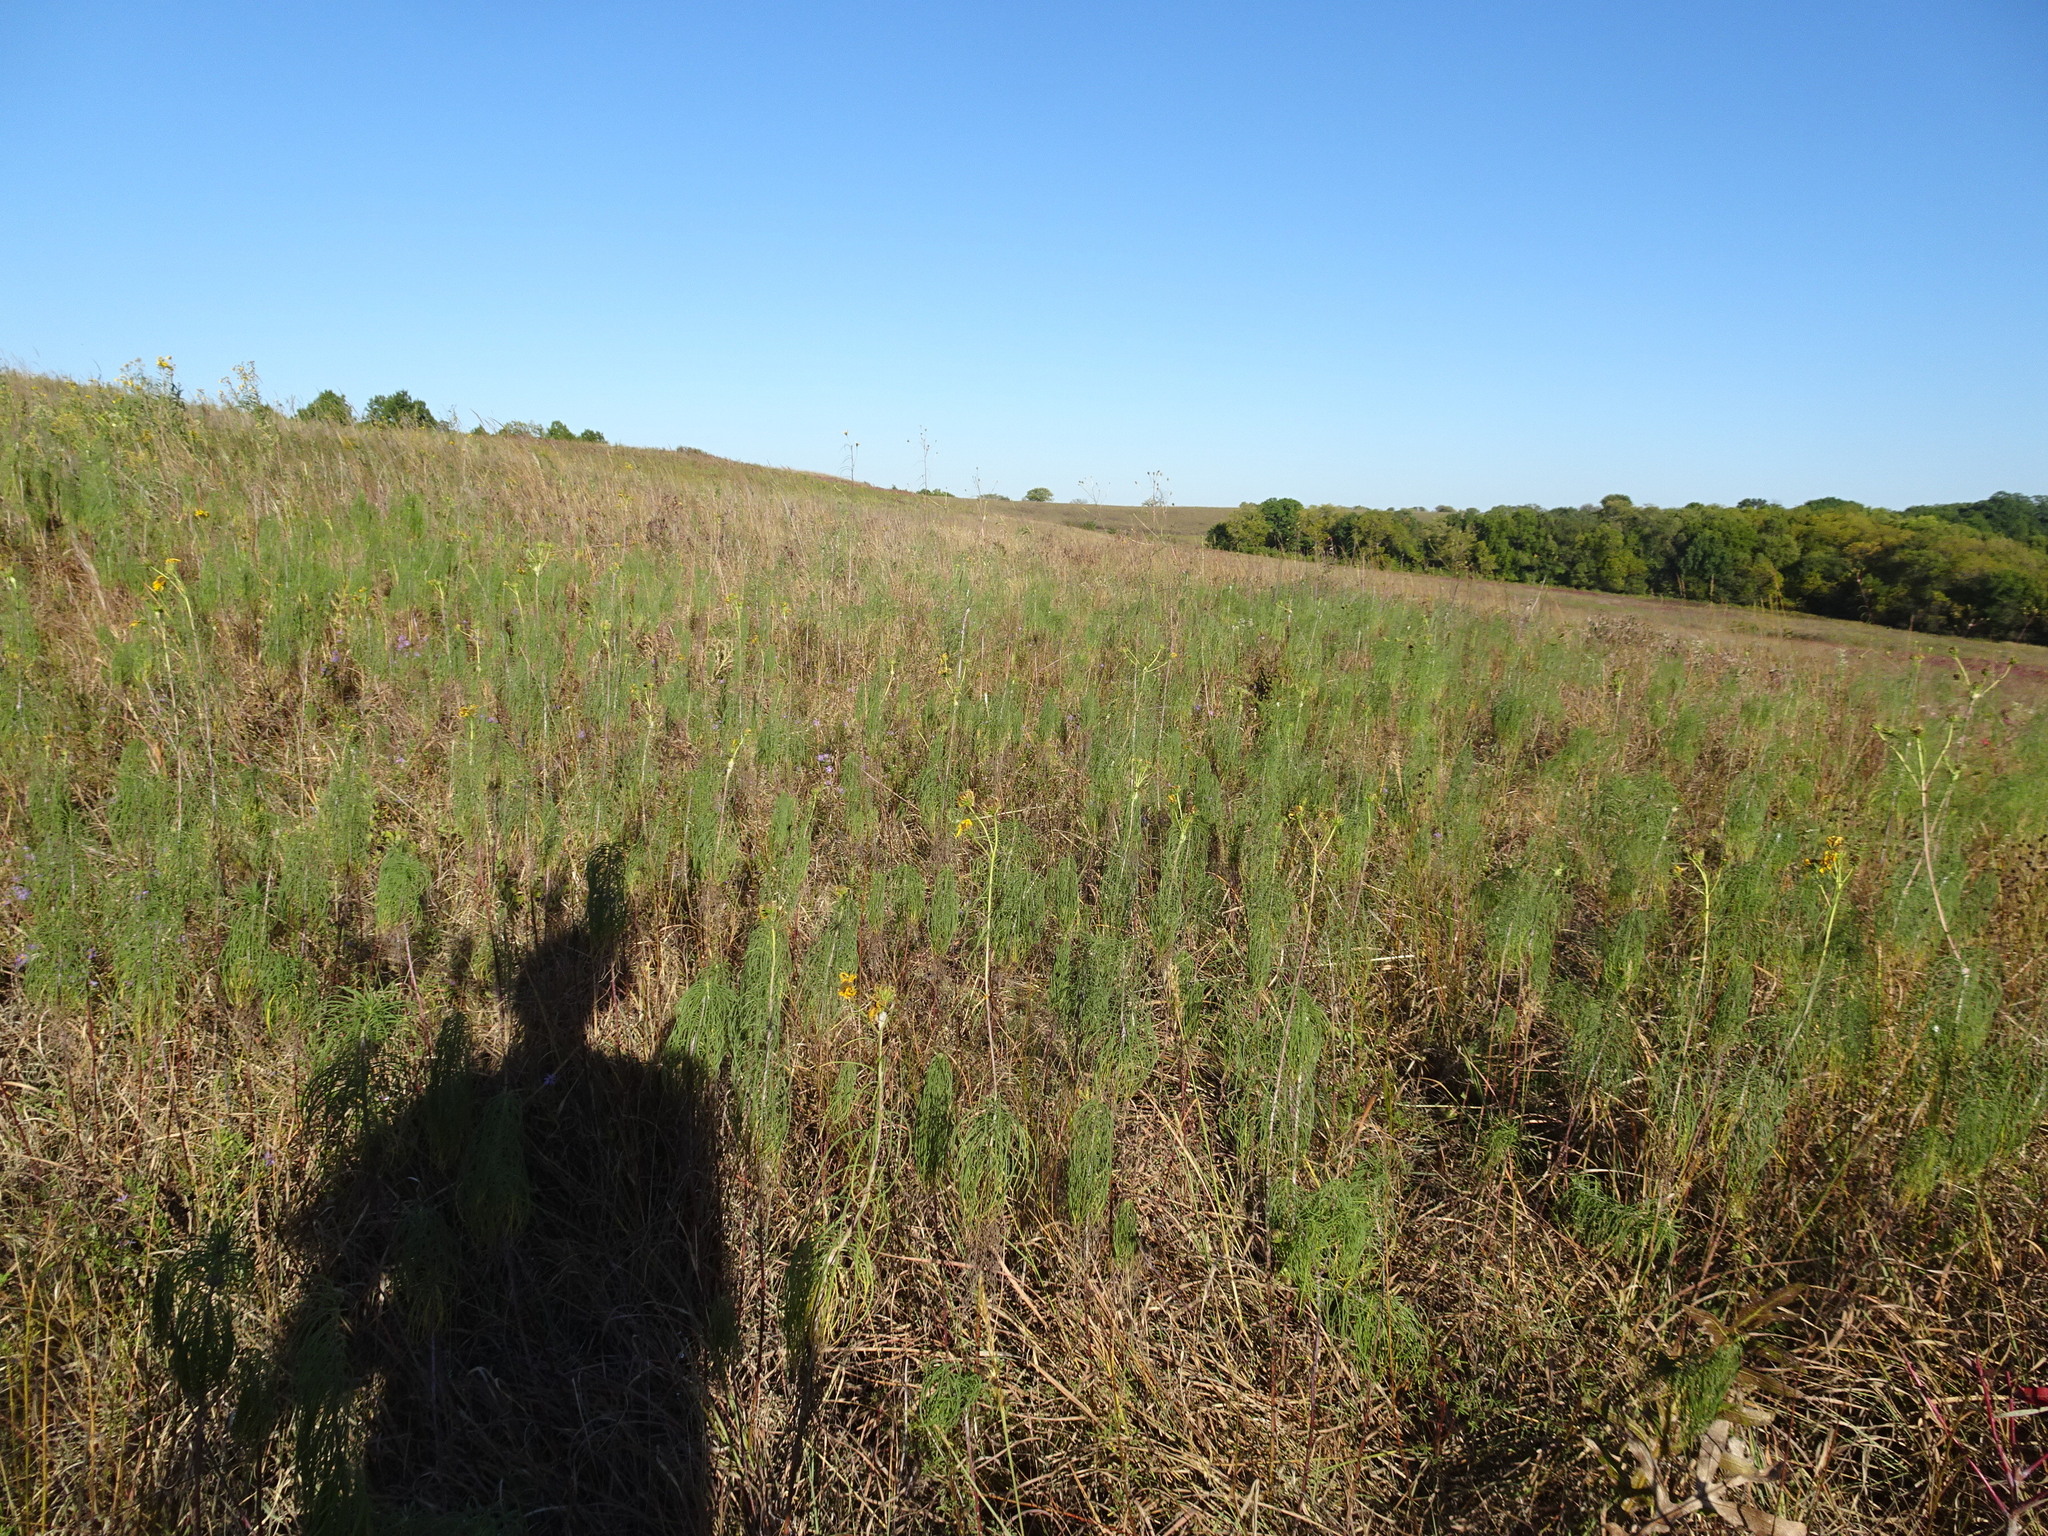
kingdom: Plantae
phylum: Tracheophyta
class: Magnoliopsida
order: Asterales
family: Asteraceae
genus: Helianthus
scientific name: Helianthus salicifolius
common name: Willowleaf sunflower
